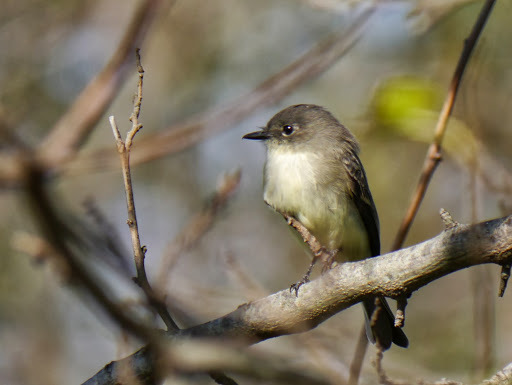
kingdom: Animalia
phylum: Chordata
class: Aves
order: Passeriformes
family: Tyrannidae
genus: Sayornis
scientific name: Sayornis phoebe
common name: Eastern phoebe
